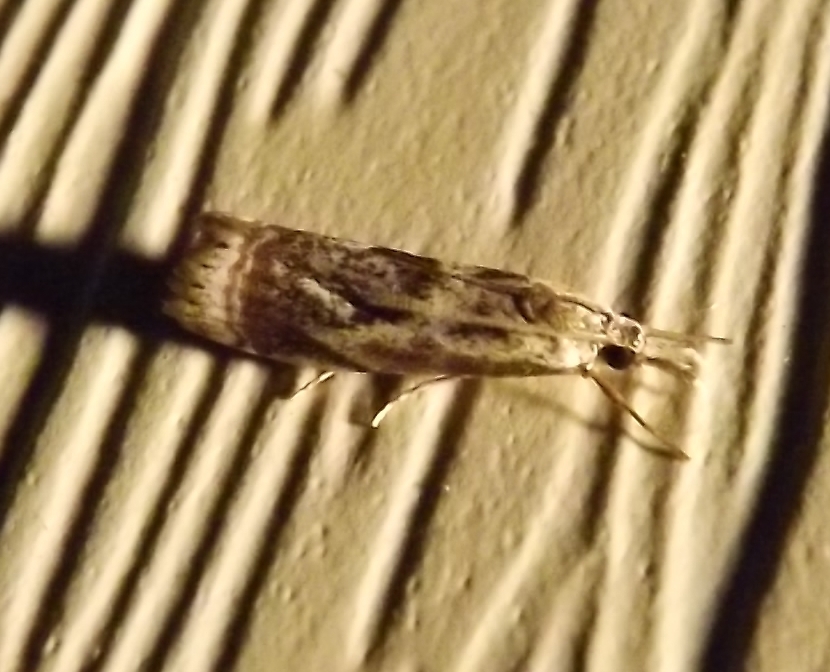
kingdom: Animalia
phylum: Arthropoda
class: Insecta
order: Lepidoptera
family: Crambidae
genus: Microcrambus
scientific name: Microcrambus elegans
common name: Elegant grass-veneer
